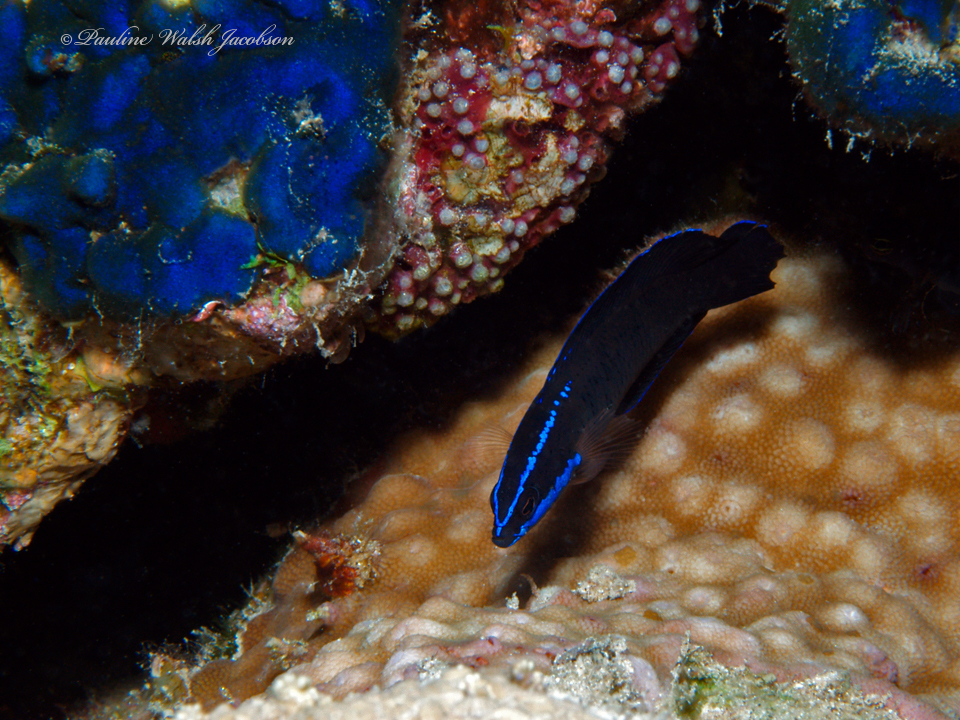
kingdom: Animalia
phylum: Chordata
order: Perciformes
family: Pseudochromidae
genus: Pseudochromis
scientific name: Pseudochromis springeri
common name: Blue-striped dottyback
